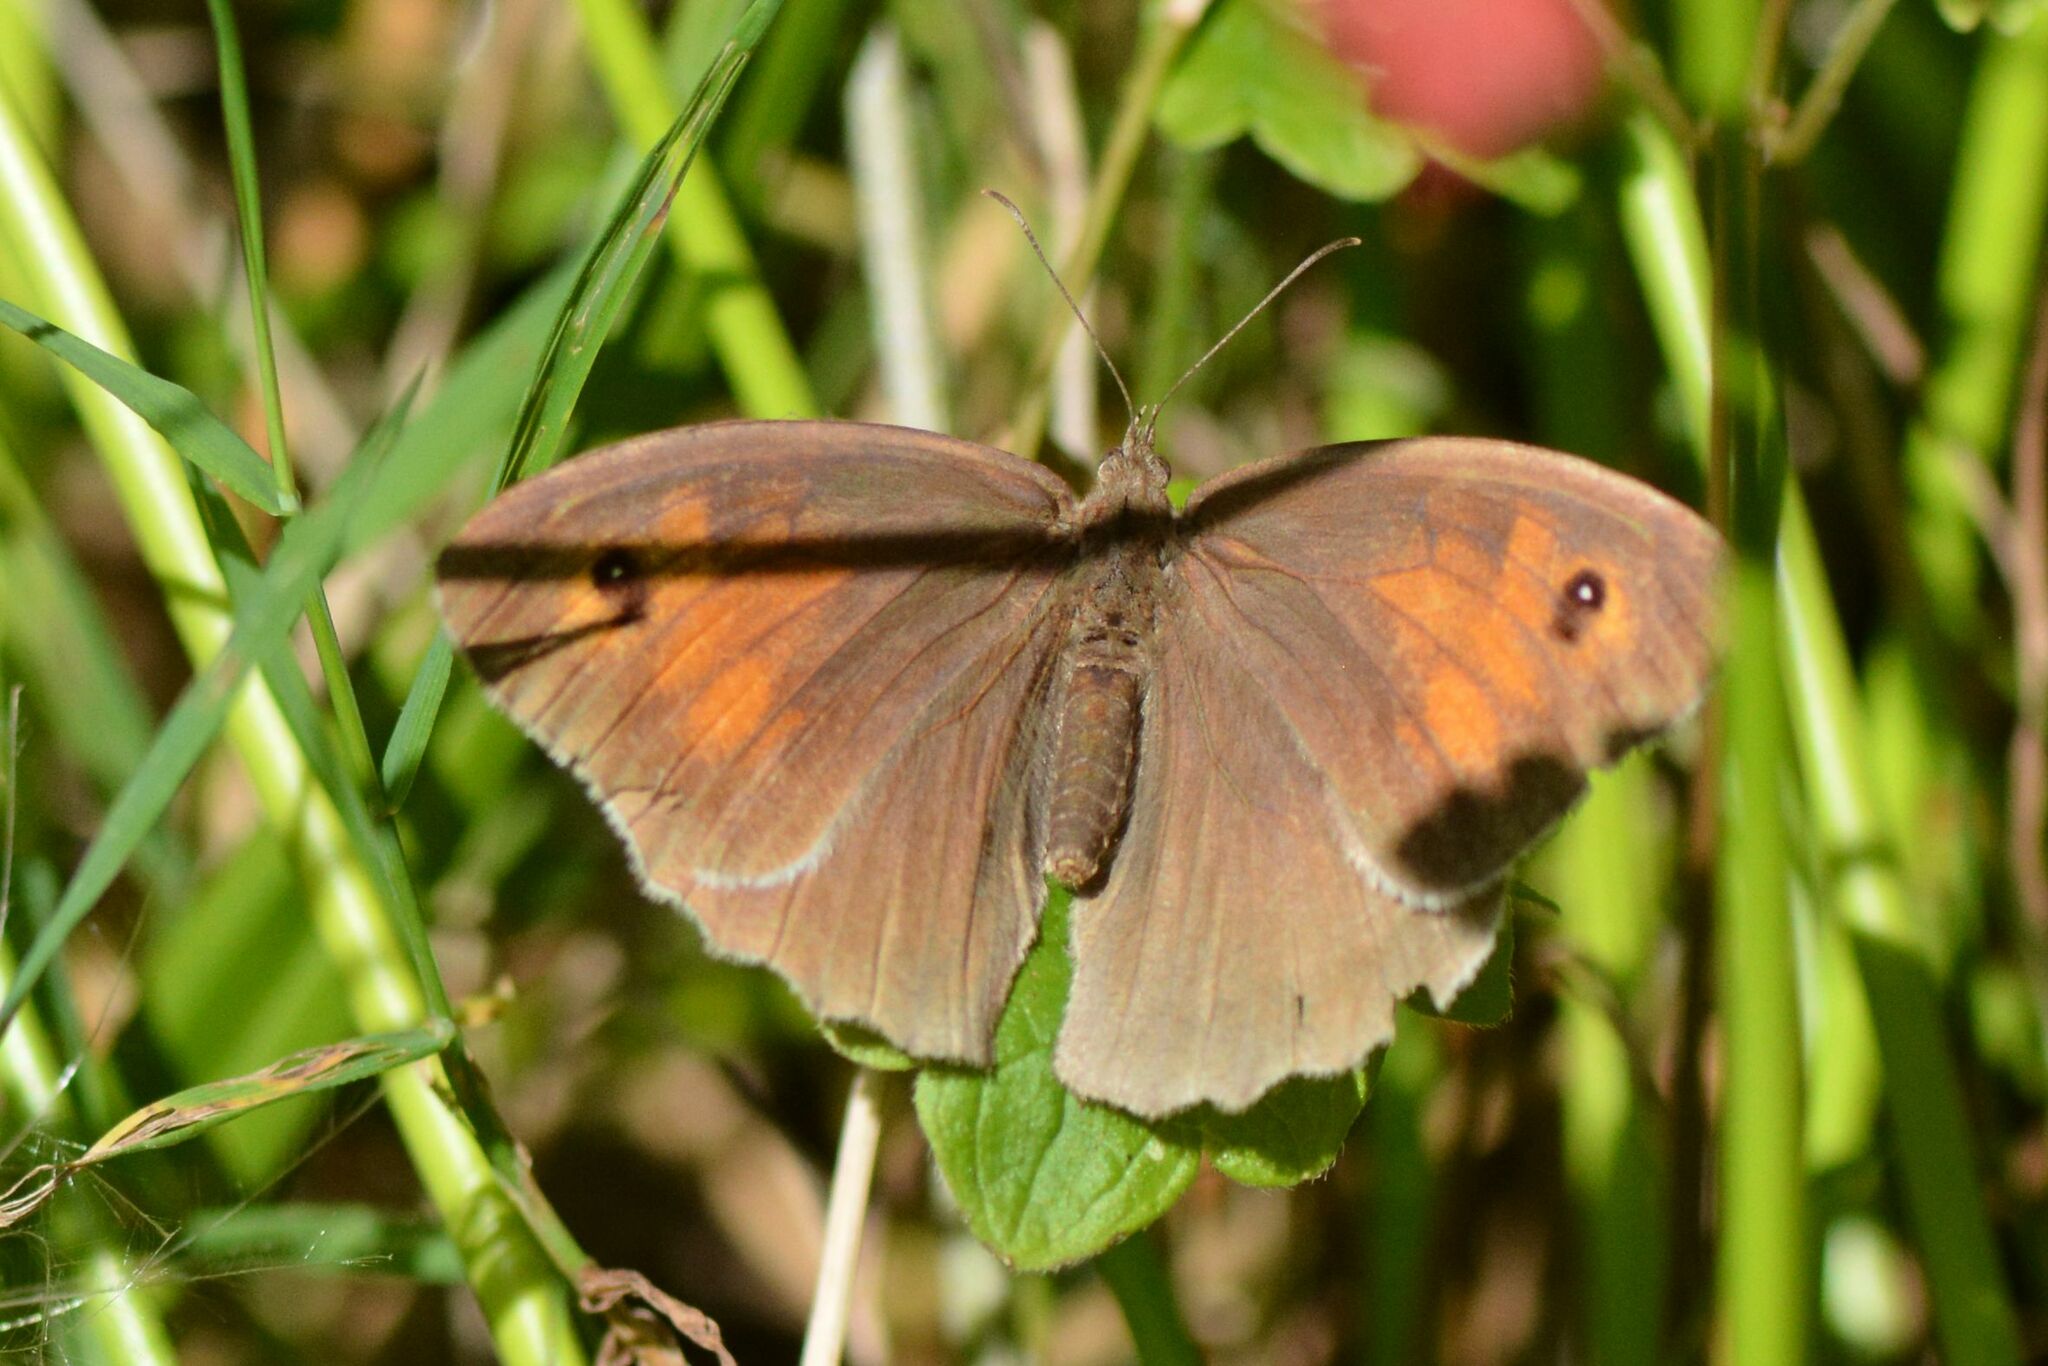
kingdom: Animalia
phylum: Arthropoda
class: Insecta
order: Lepidoptera
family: Nymphalidae
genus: Maniola
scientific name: Maniola jurtina
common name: Meadow brown
